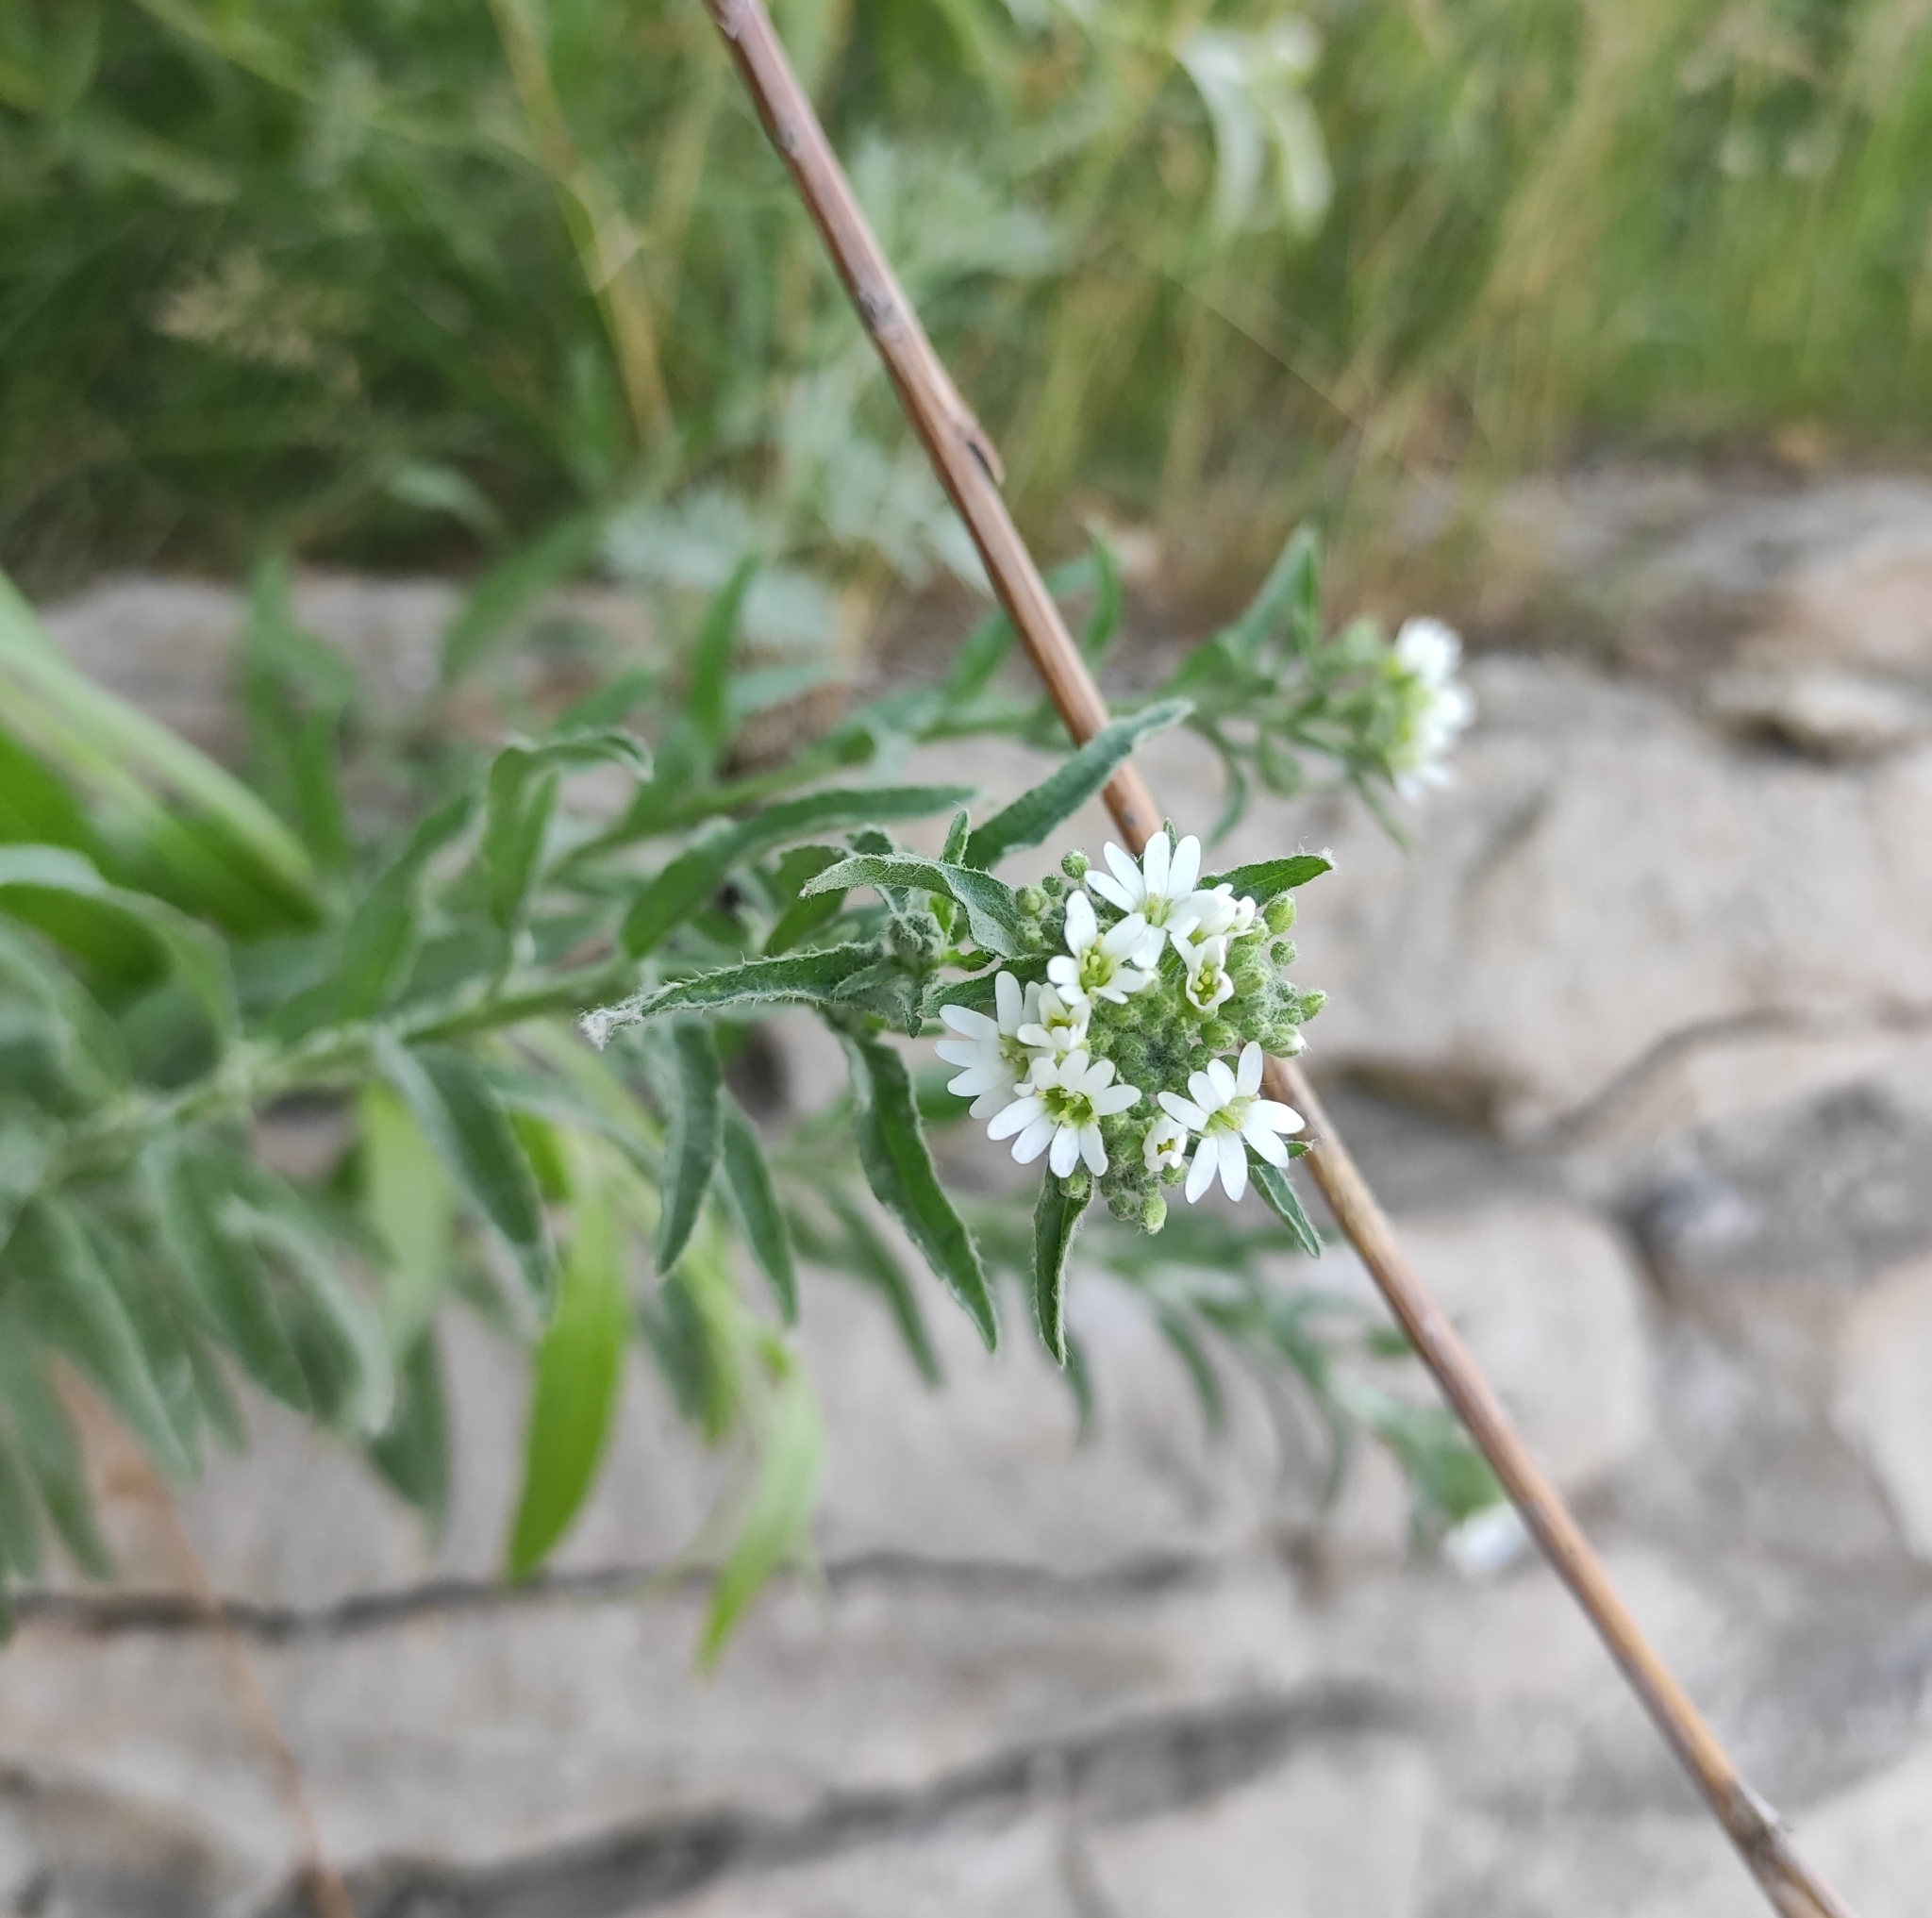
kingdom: Plantae
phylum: Tracheophyta
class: Magnoliopsida
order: Brassicales
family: Brassicaceae
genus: Berteroa
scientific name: Berteroa incana
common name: Hoary alison
